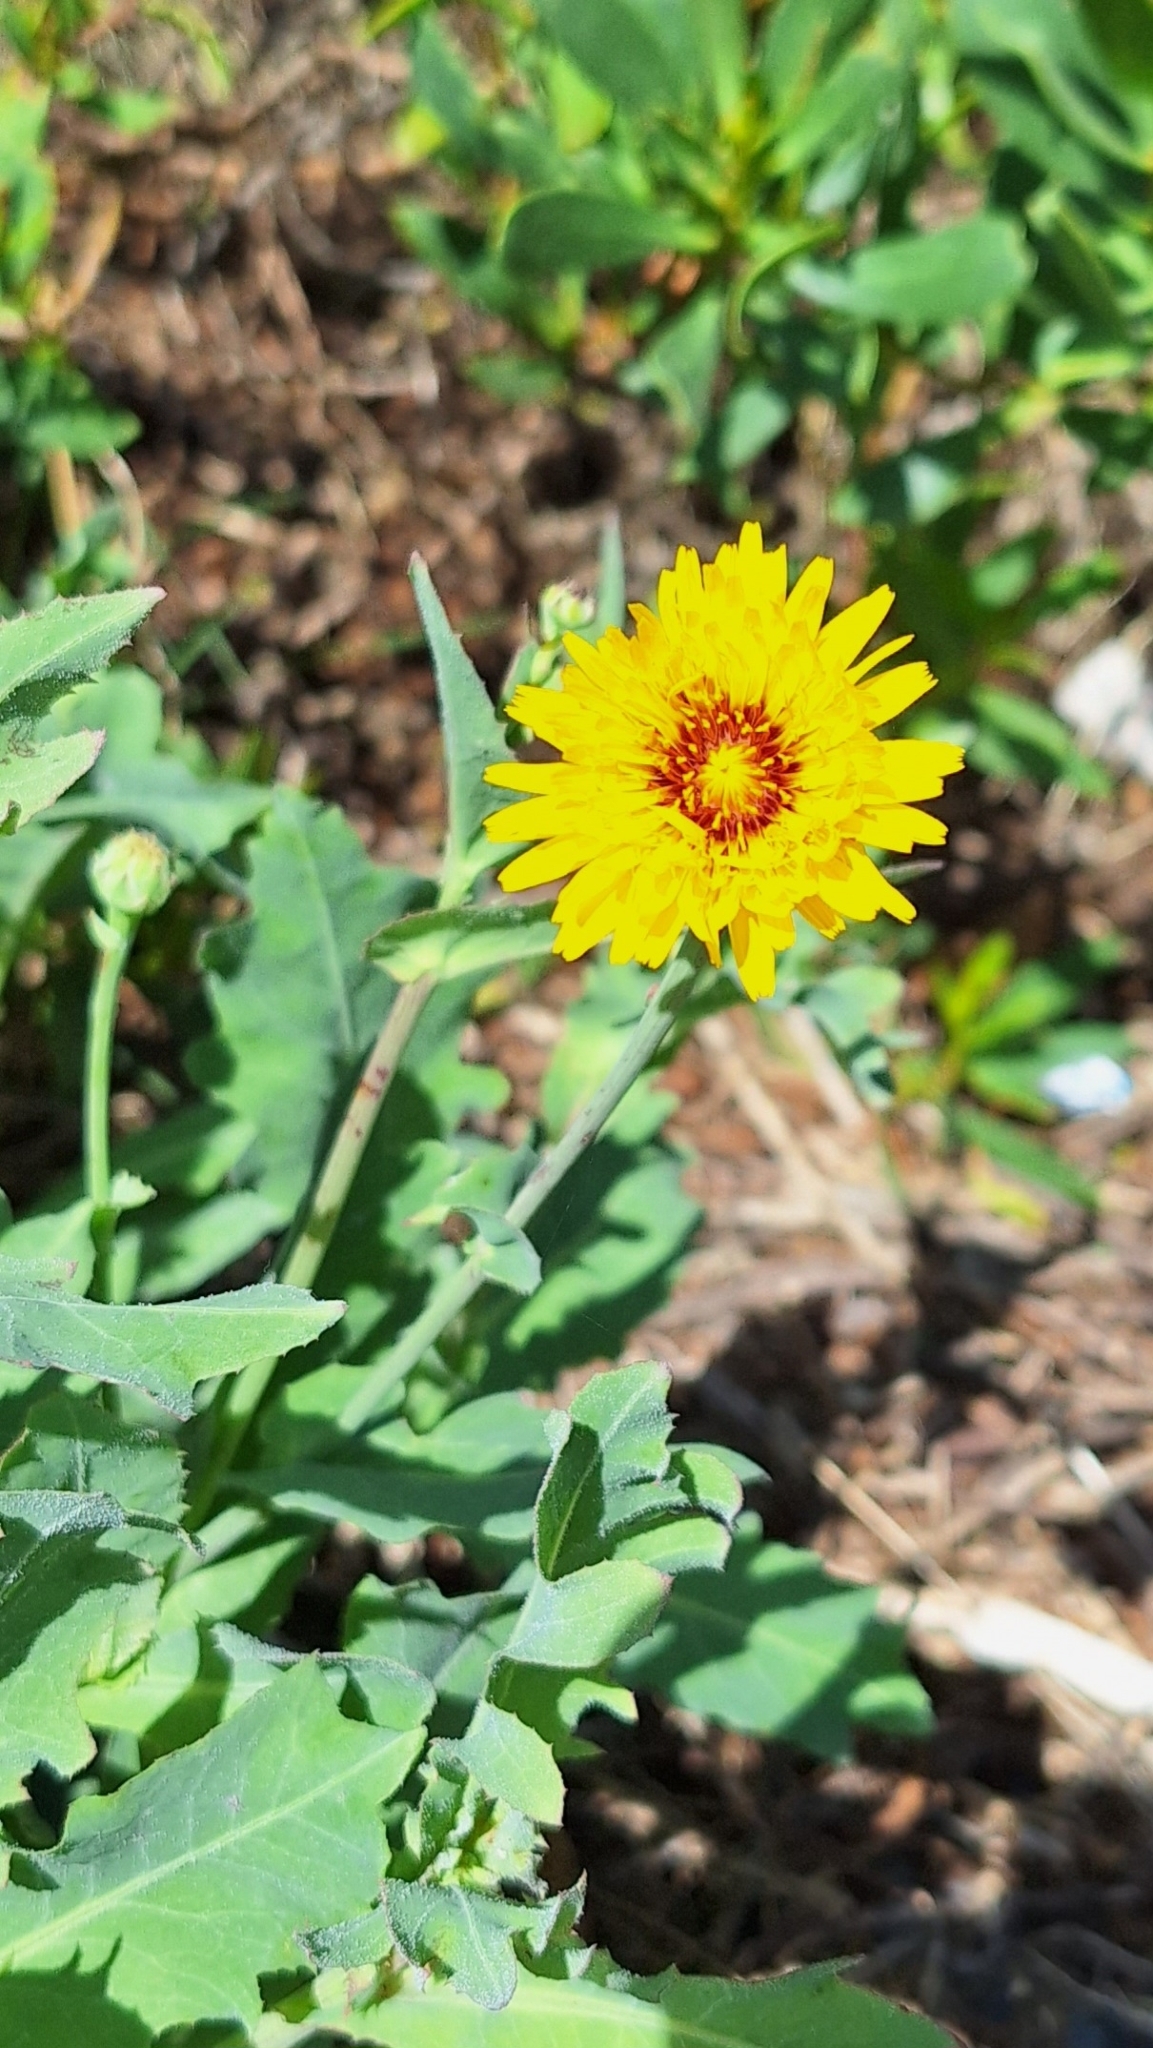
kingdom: Plantae
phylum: Tracheophyta
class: Magnoliopsida
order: Asterales
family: Asteraceae
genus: Reichardia
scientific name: Reichardia tingitana
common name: Reichardia
